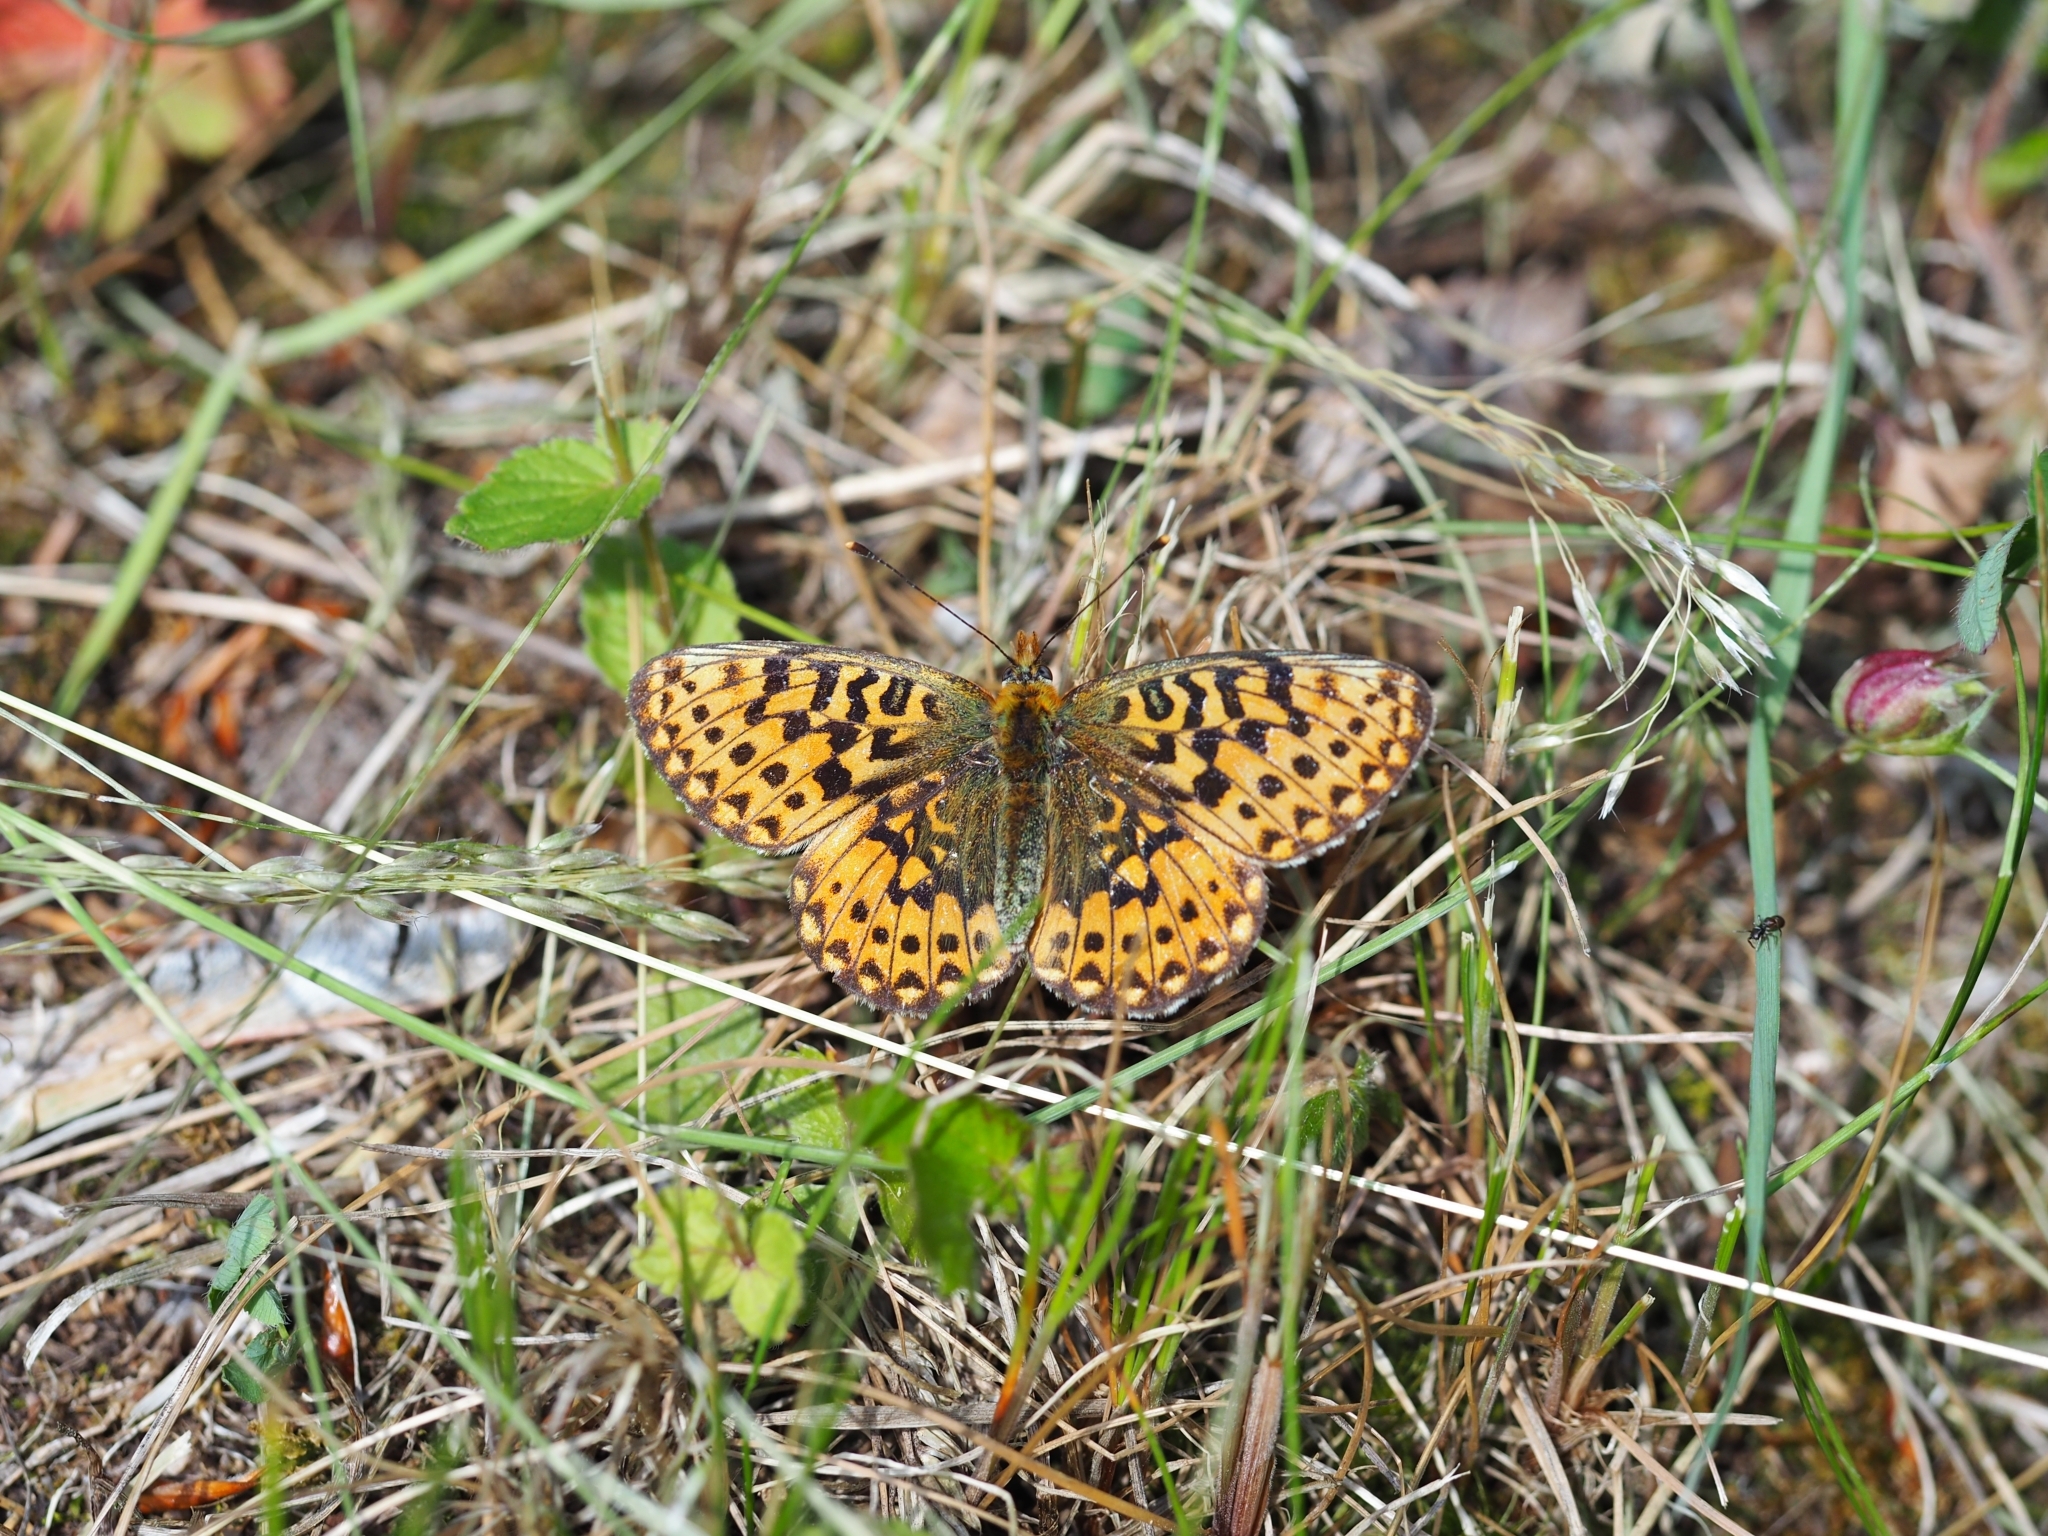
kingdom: Animalia
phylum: Arthropoda
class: Insecta
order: Lepidoptera
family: Nymphalidae
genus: Clossiana
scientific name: Clossiana euphrosyne
